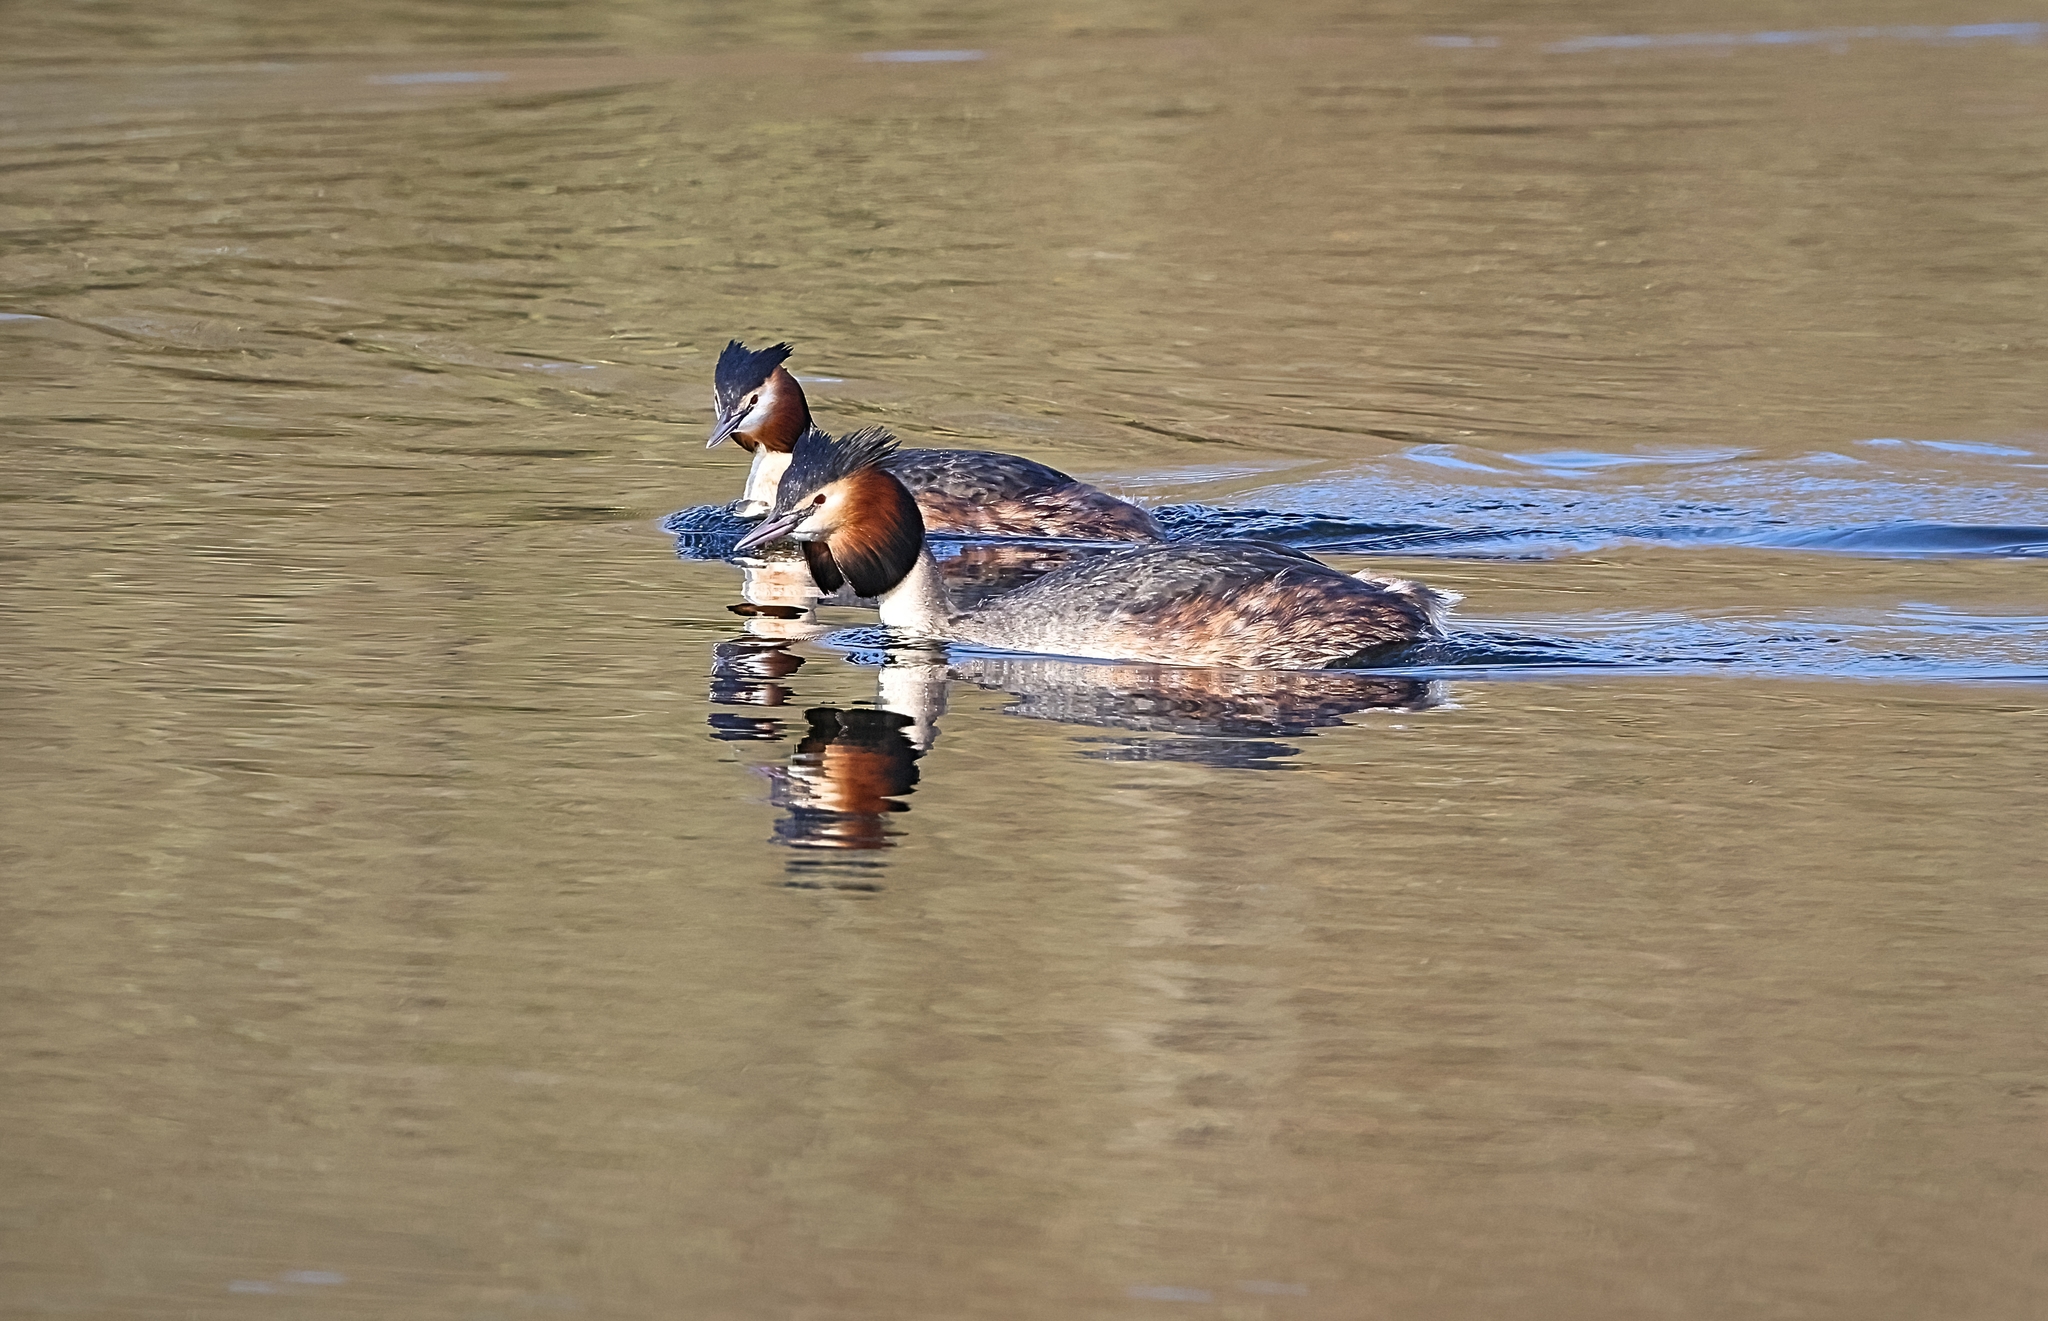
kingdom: Animalia
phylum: Chordata
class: Aves
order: Podicipediformes
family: Podicipedidae
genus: Podiceps
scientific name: Podiceps cristatus
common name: Great crested grebe
